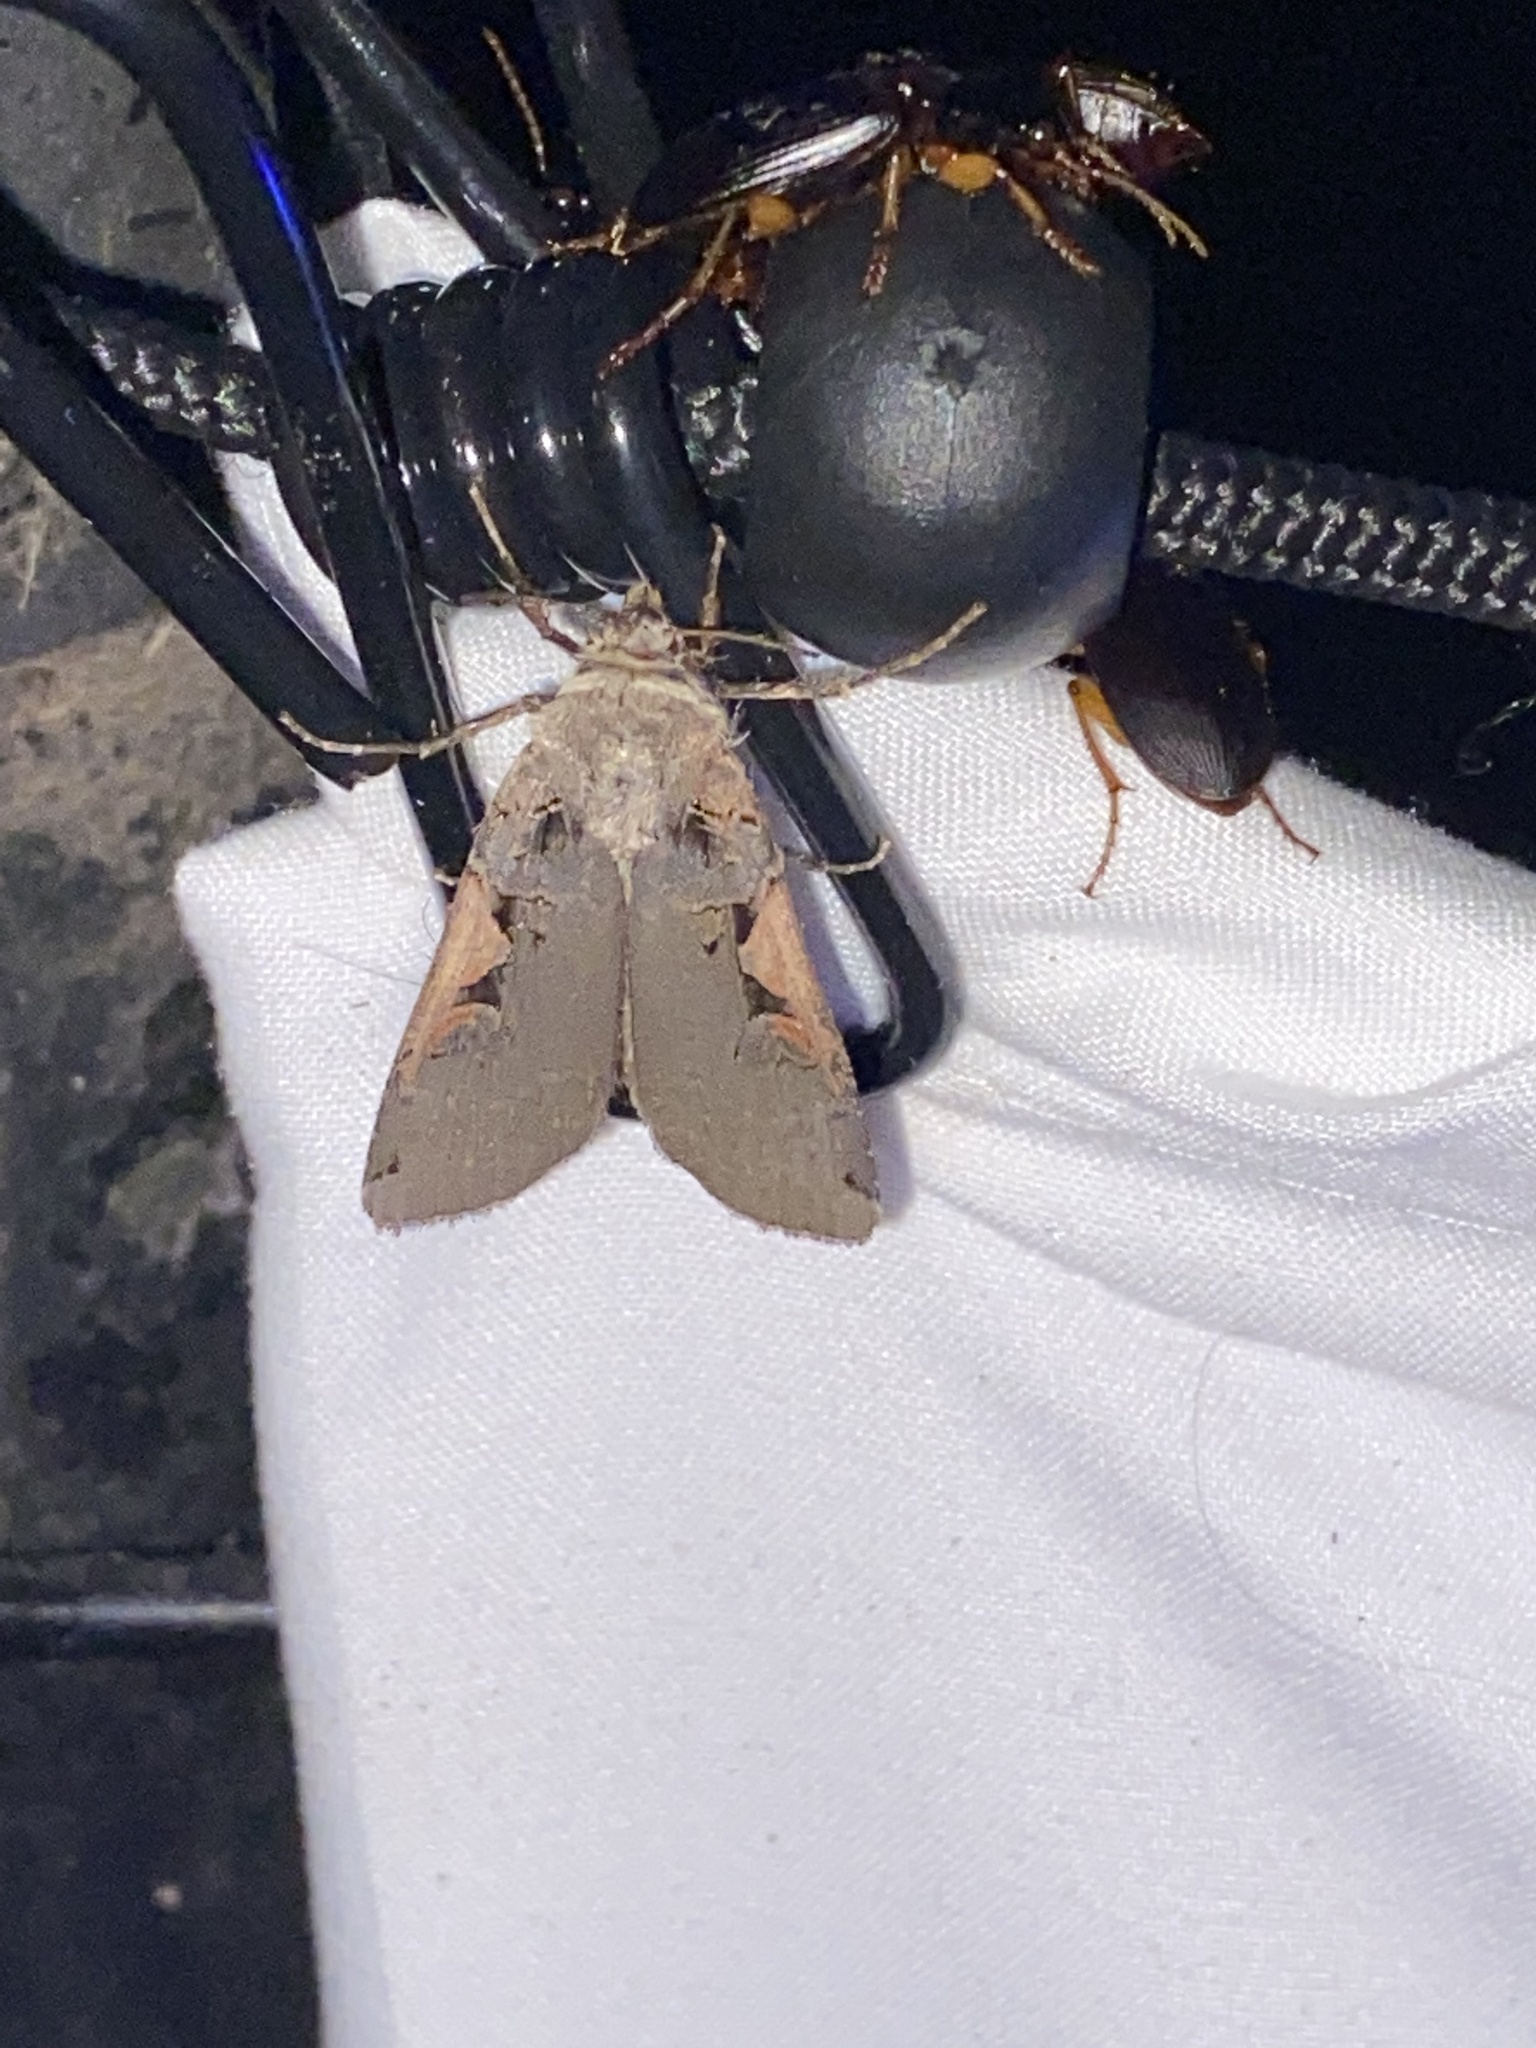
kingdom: Animalia
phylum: Arthropoda
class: Insecta
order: Lepidoptera
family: Noctuidae
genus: Xestia
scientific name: Xestia dolosa
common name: Cutworm moth
